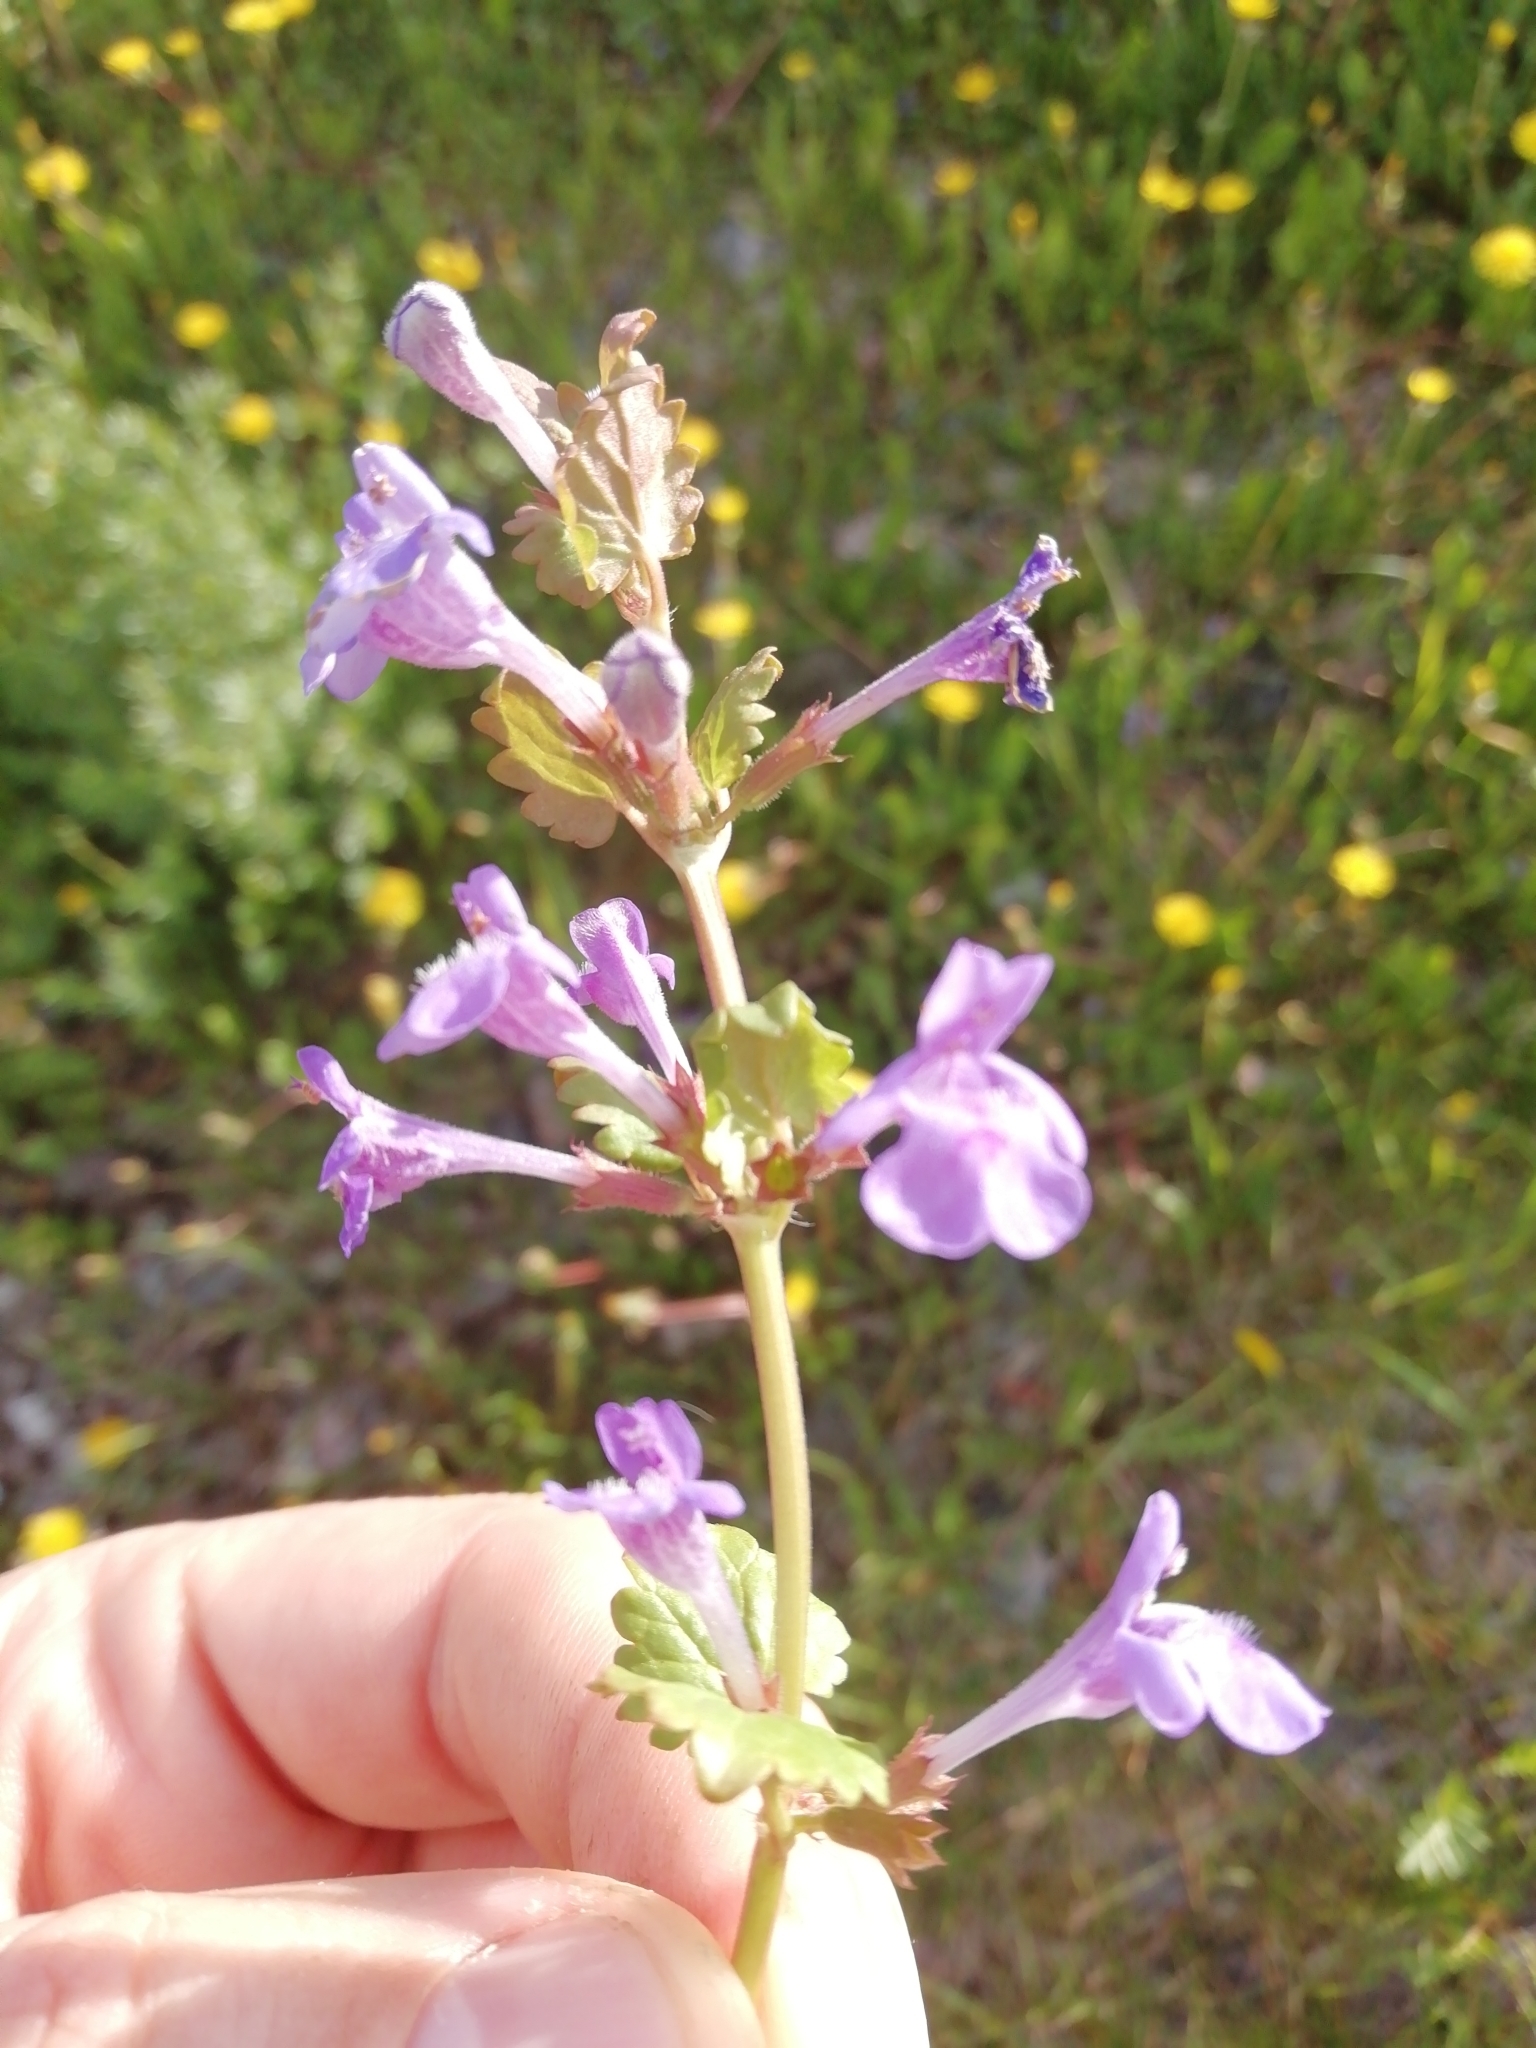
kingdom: Plantae
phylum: Tracheophyta
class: Magnoliopsida
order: Lamiales
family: Lamiaceae
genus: Glechoma
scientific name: Glechoma hederacea
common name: Ground ivy
